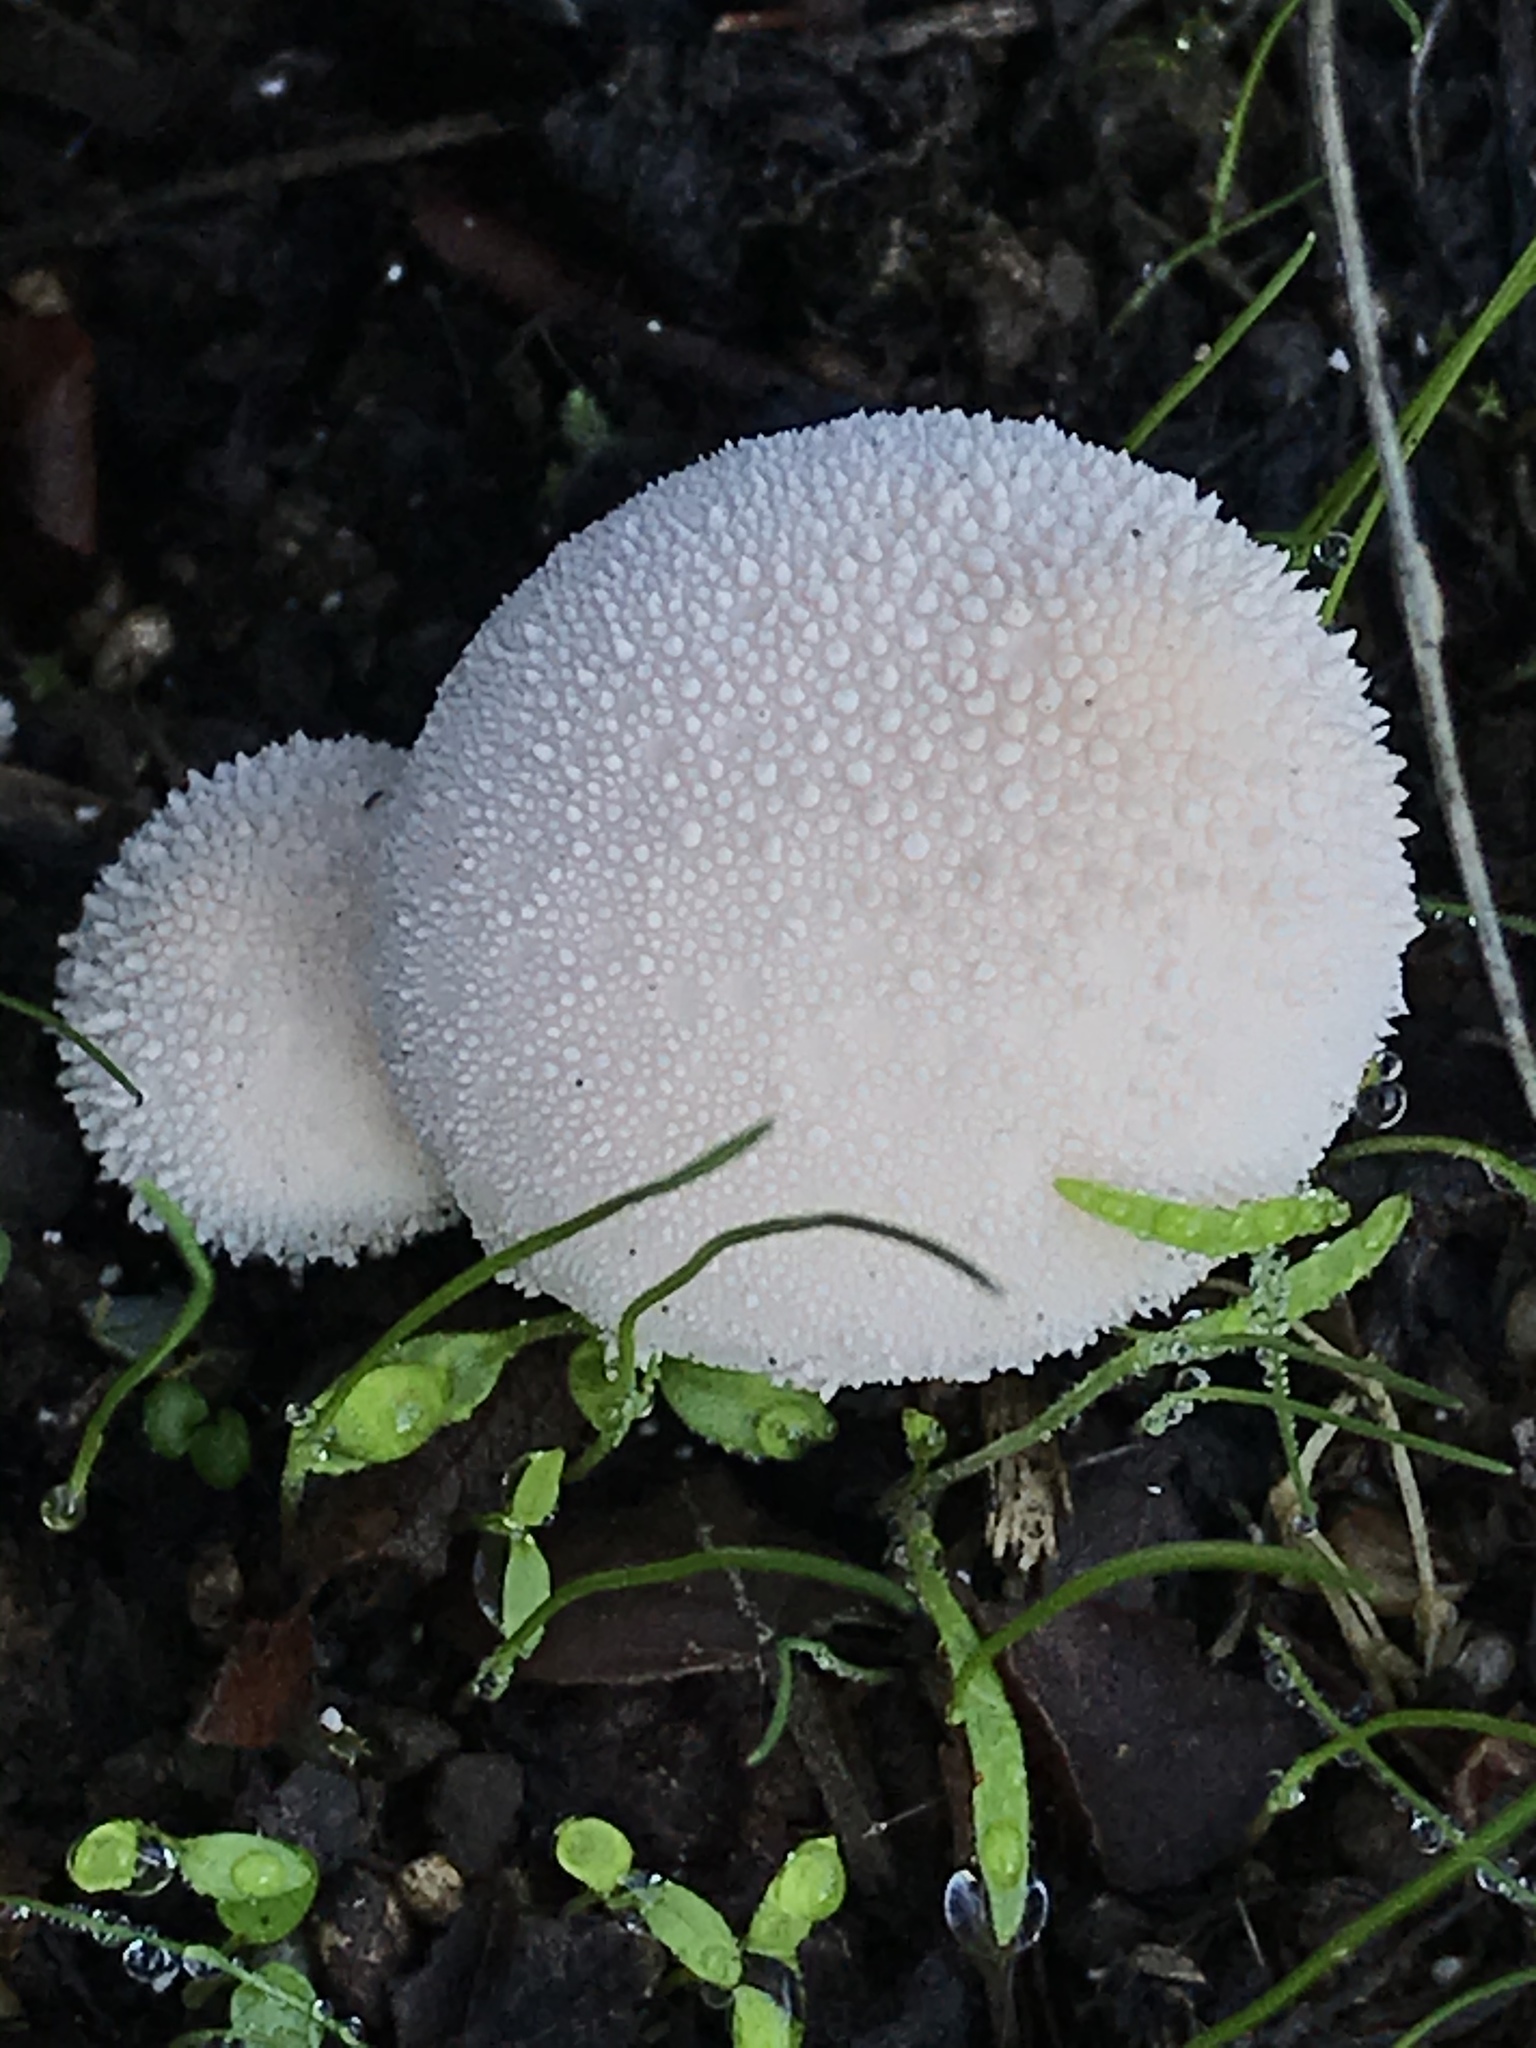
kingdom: Fungi
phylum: Basidiomycota
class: Agaricomycetes
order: Agaricales
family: Lycoperdaceae
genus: Lycoperdon
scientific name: Lycoperdon perlatum
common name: Common puffball
